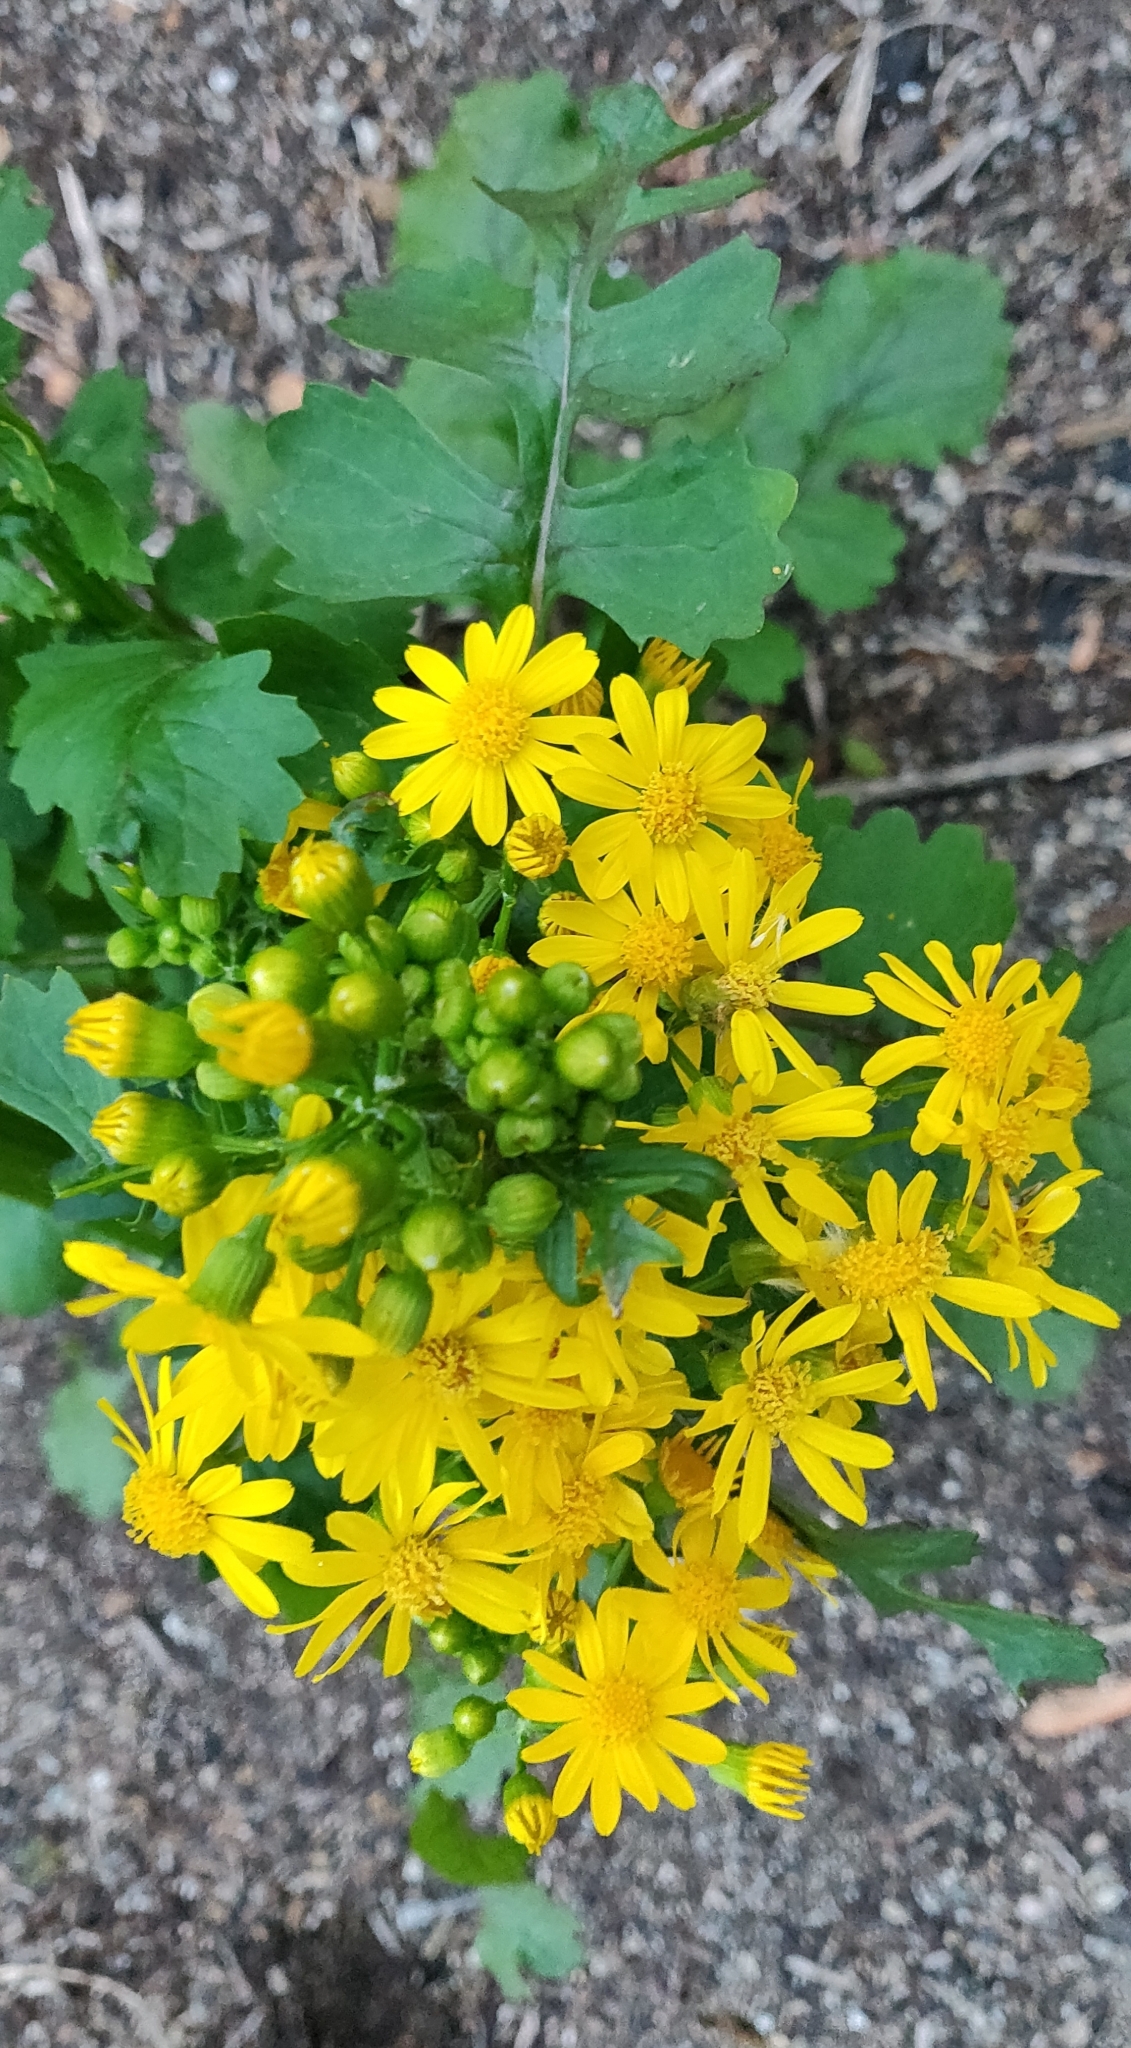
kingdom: Plantae
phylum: Tracheophyta
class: Magnoliopsida
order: Asterales
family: Asteraceae
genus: Packera
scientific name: Packera glabella
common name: Butterweed
